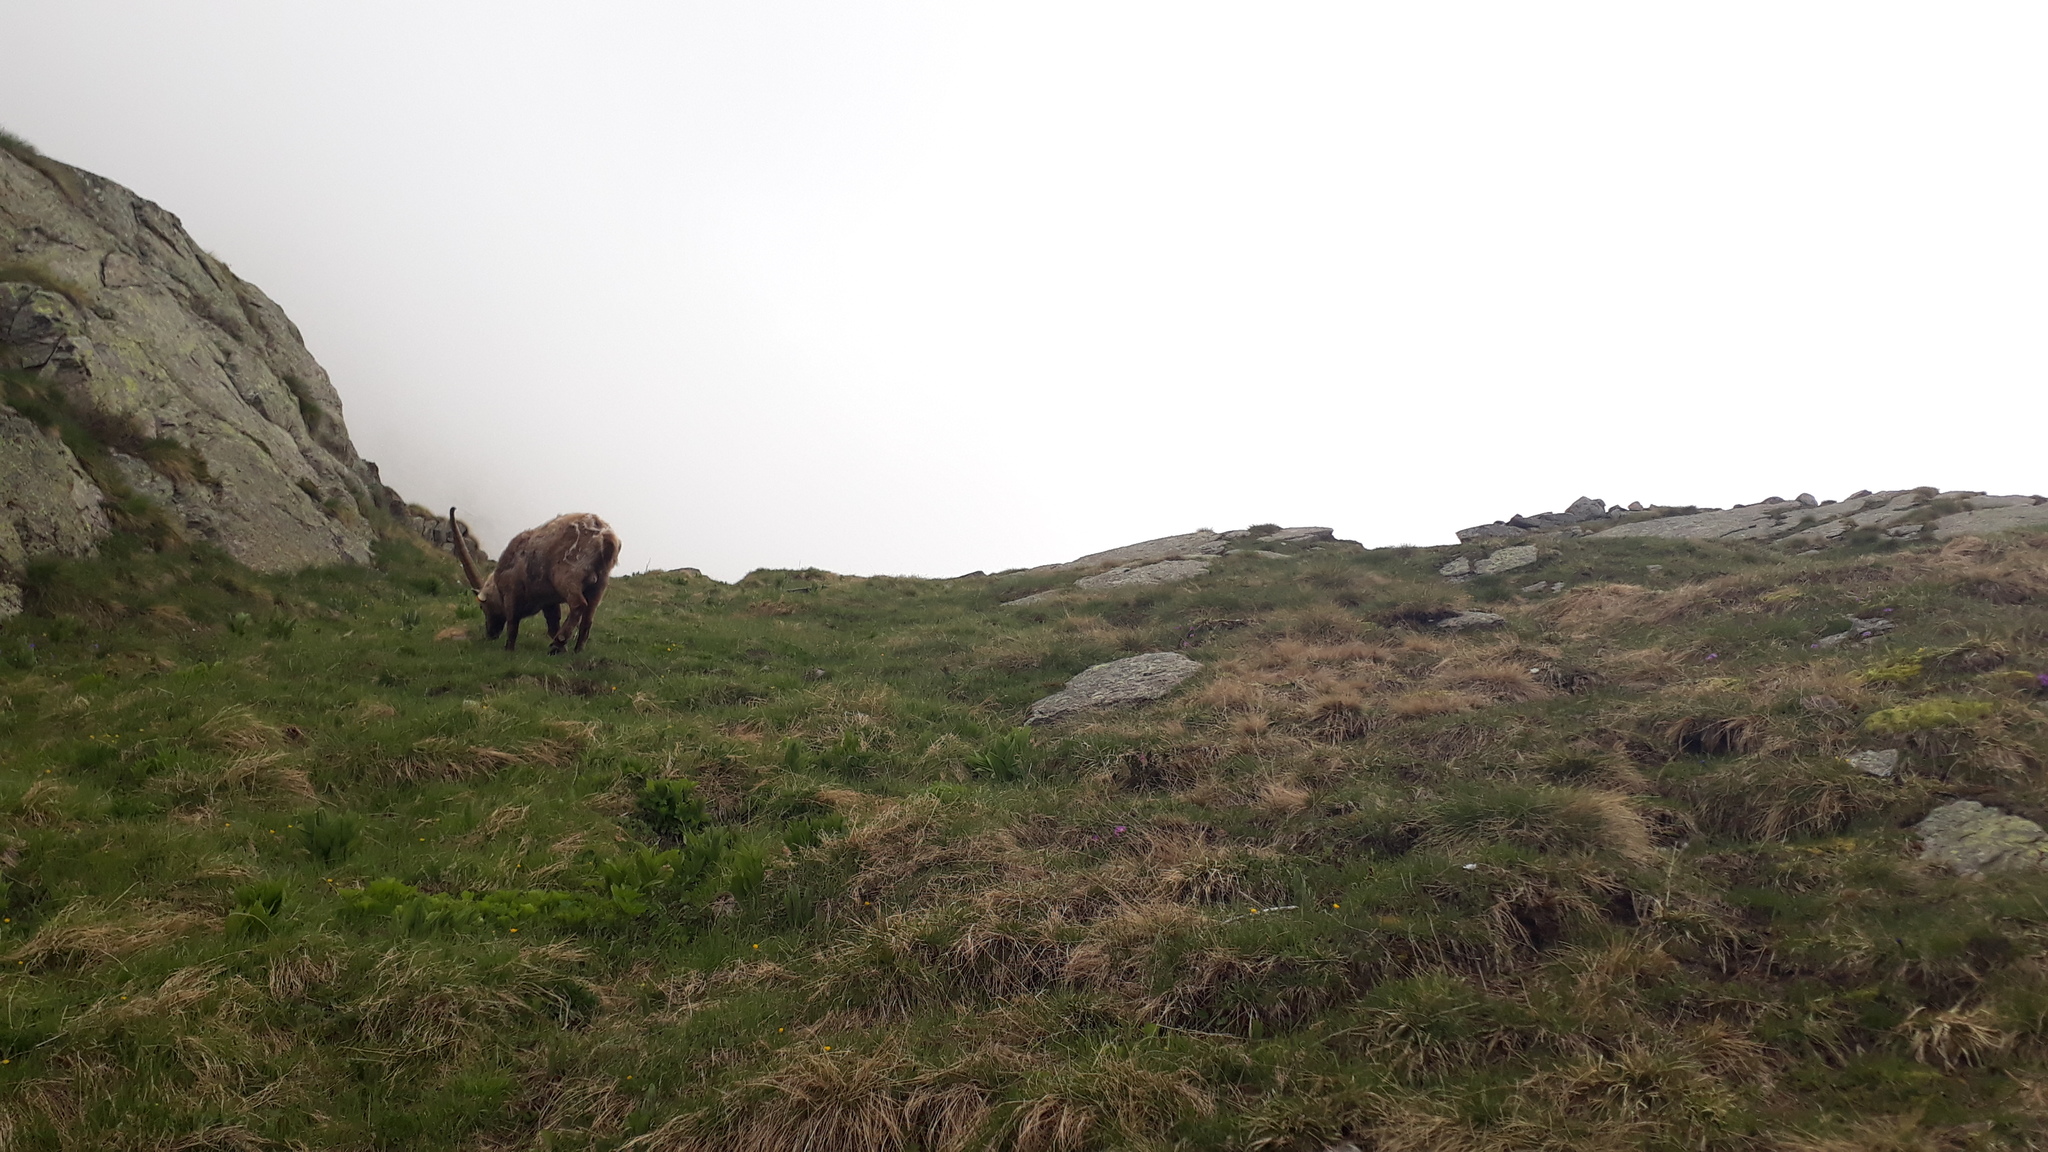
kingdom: Animalia
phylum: Chordata
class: Mammalia
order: Artiodactyla
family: Bovidae
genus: Capra
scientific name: Capra ibex
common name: Alpine ibex
